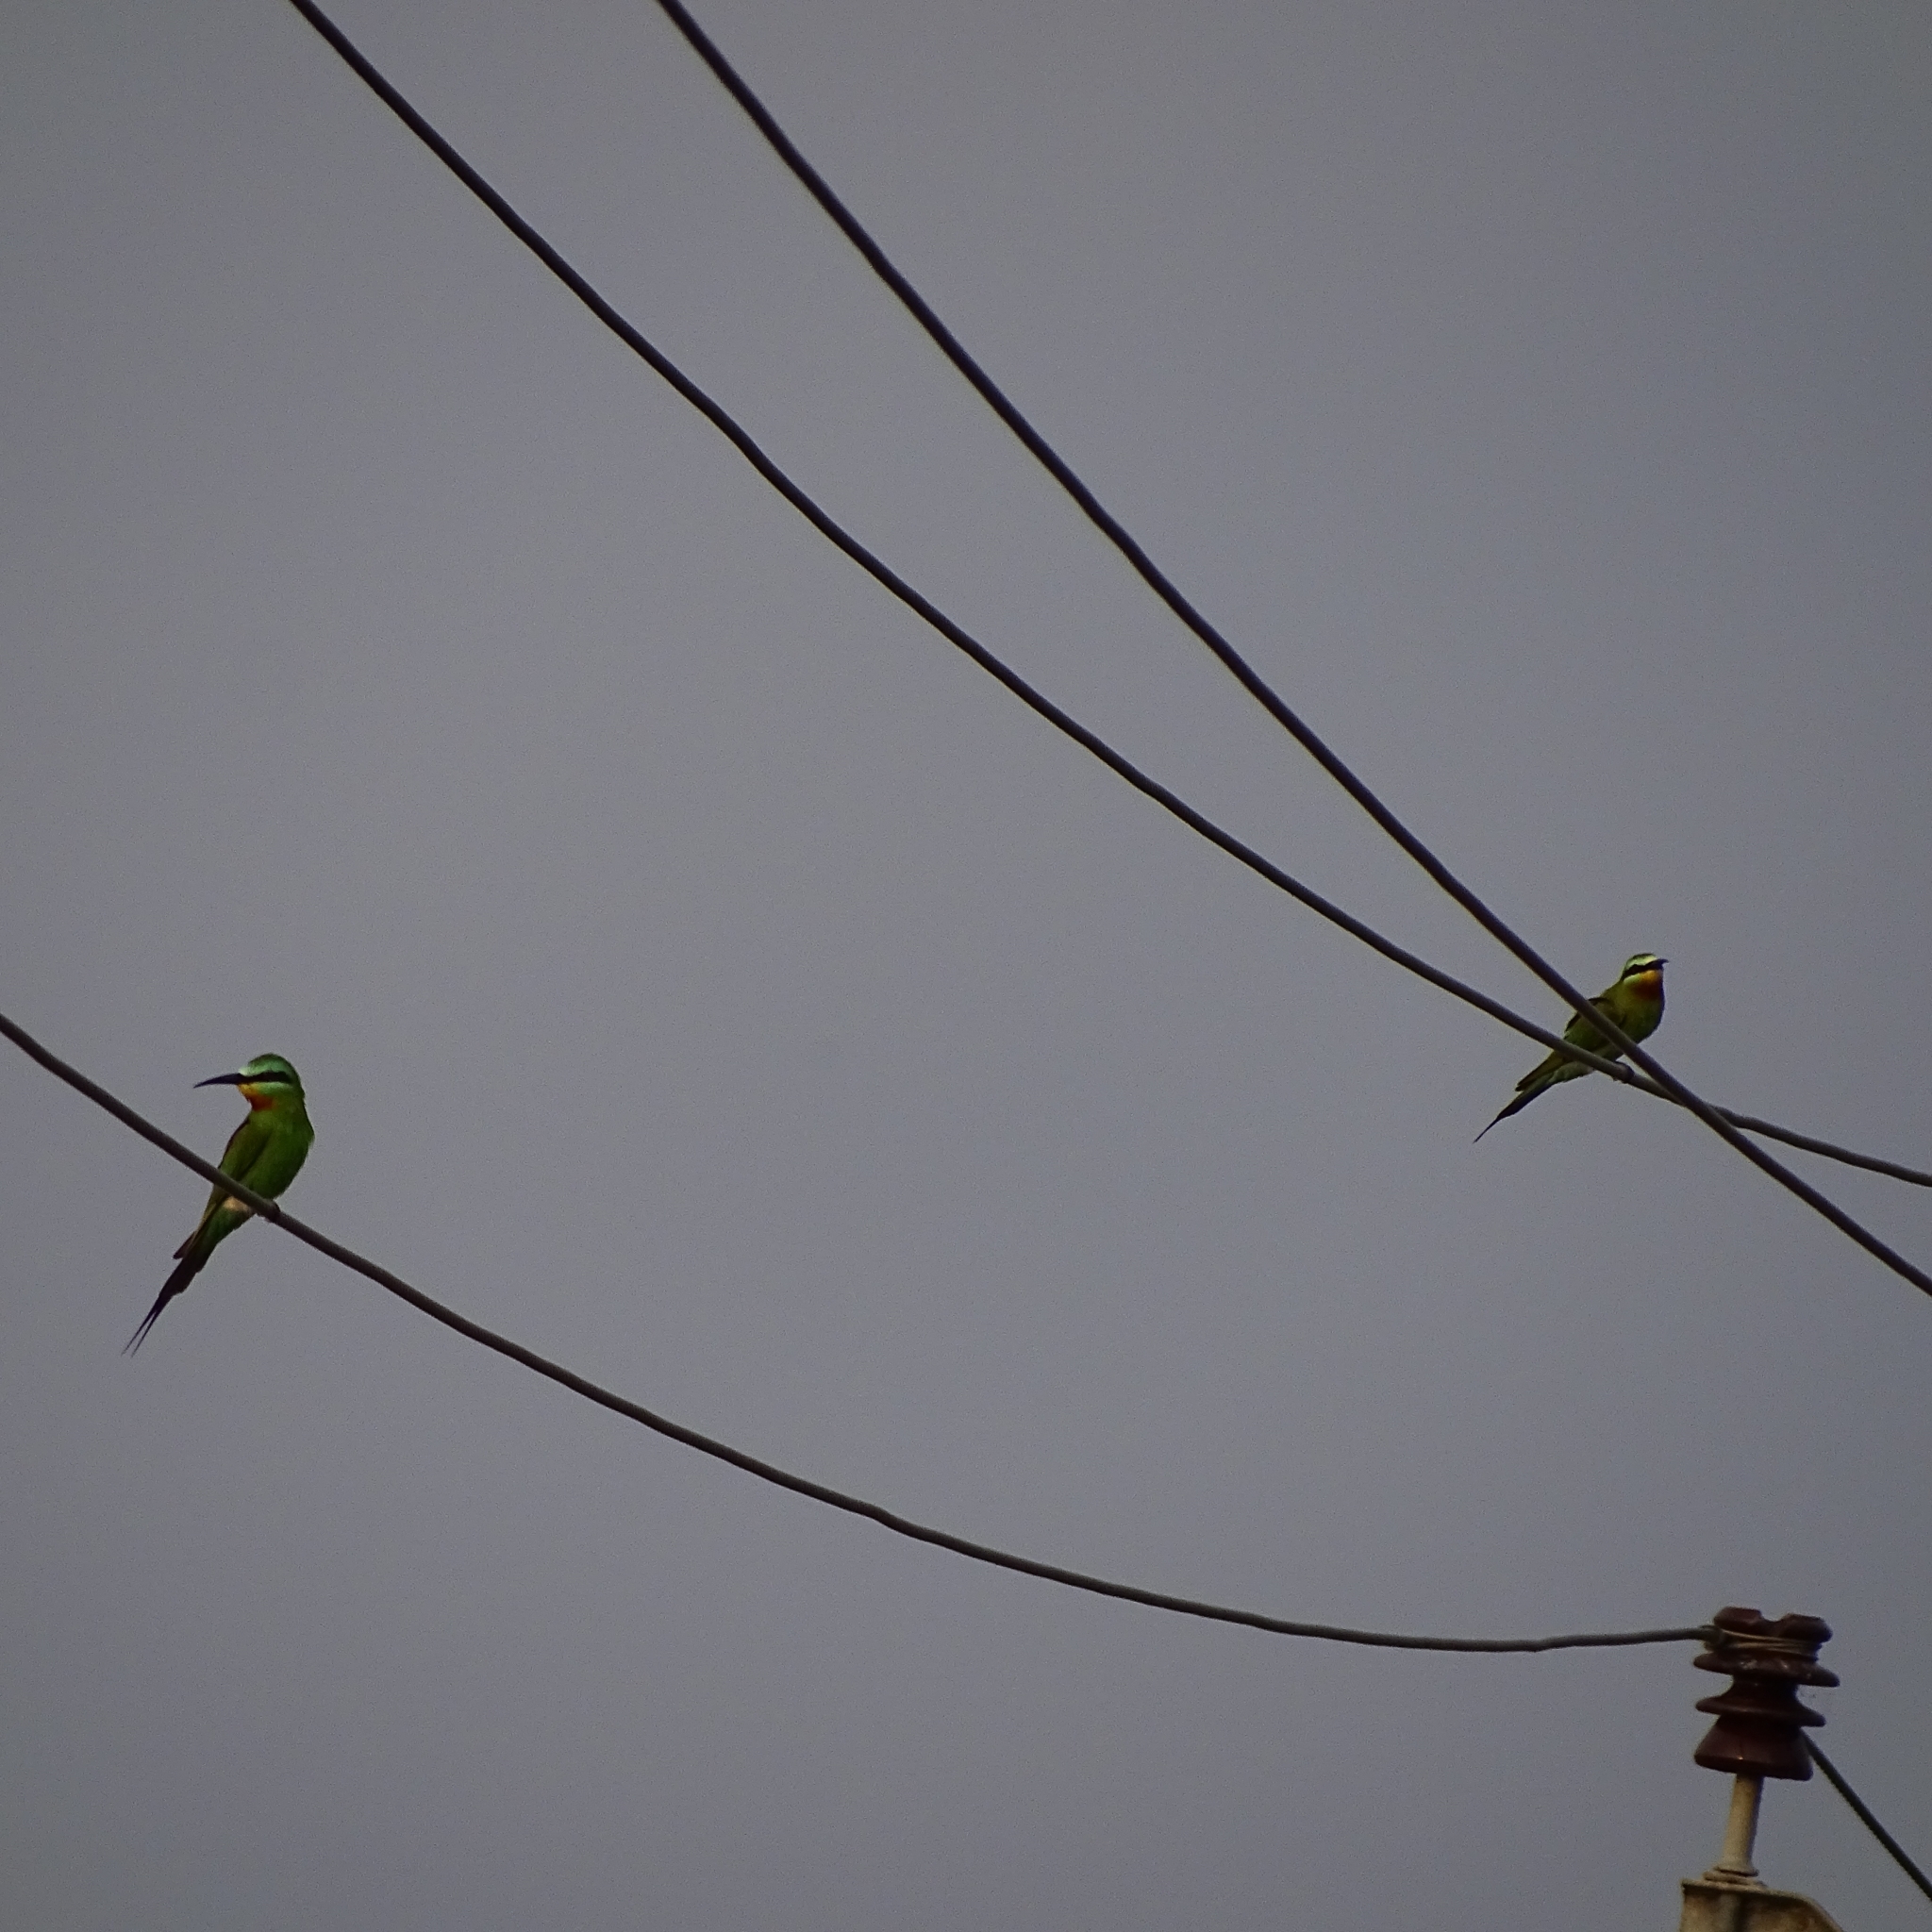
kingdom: Animalia
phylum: Chordata
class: Aves
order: Coraciiformes
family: Meropidae
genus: Merops
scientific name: Merops persicus
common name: Blue-cheeked bee-eater
